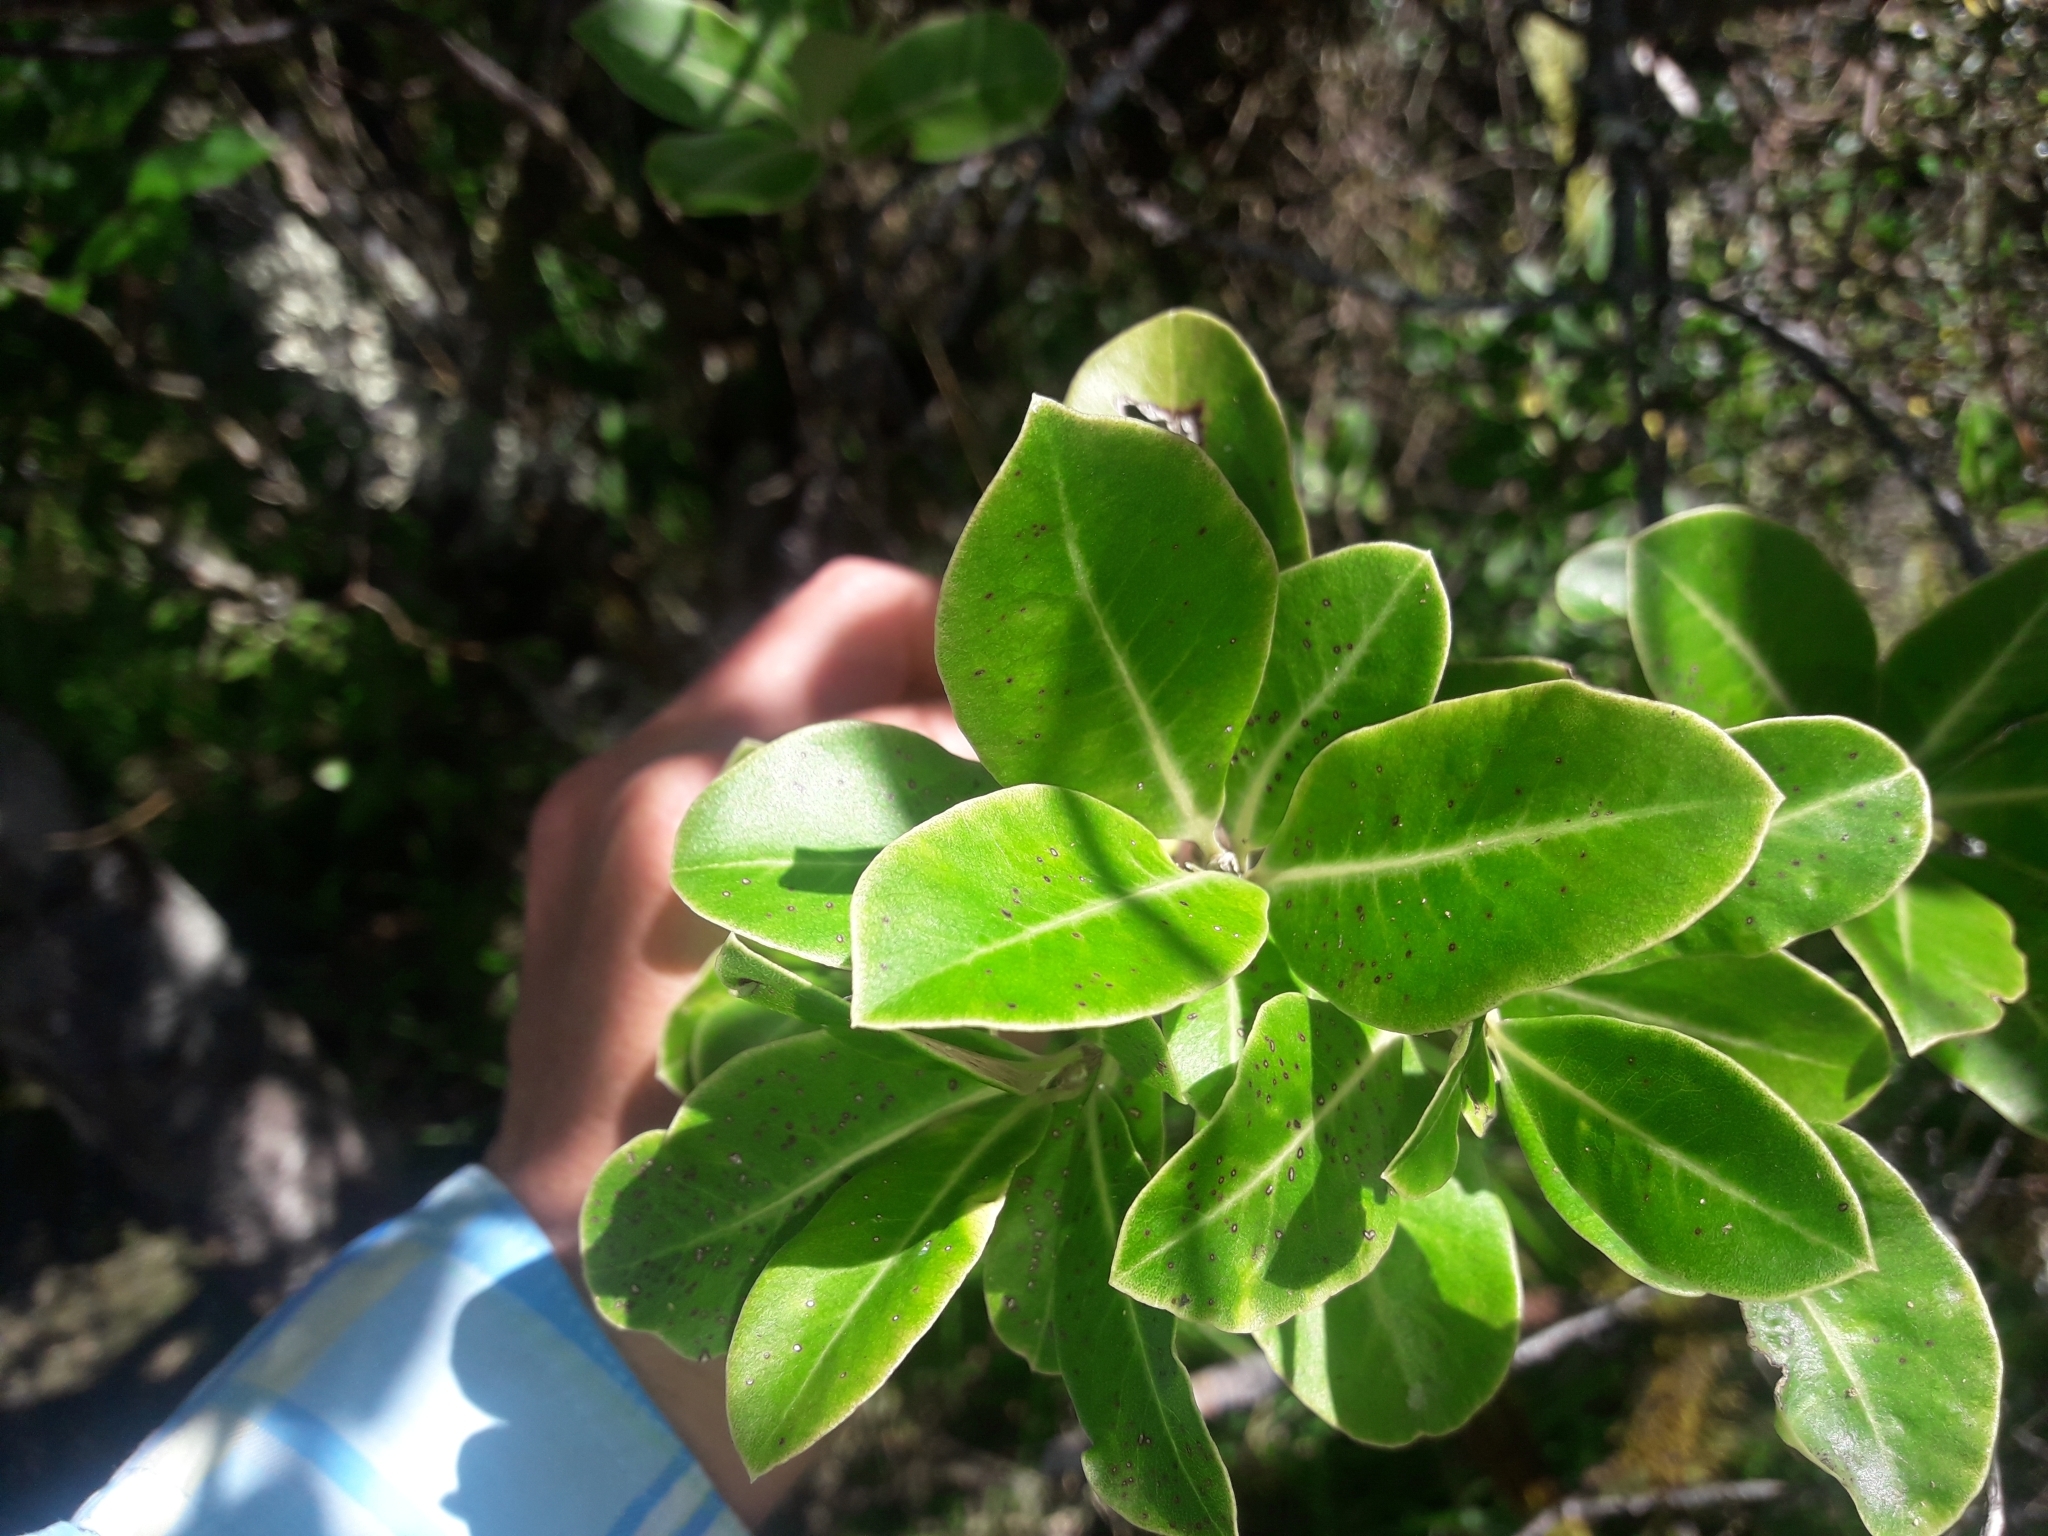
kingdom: Plantae
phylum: Tracheophyta
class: Magnoliopsida
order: Apiales
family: Pittosporaceae
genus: Pittosporum
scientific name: Pittosporum colensoi
